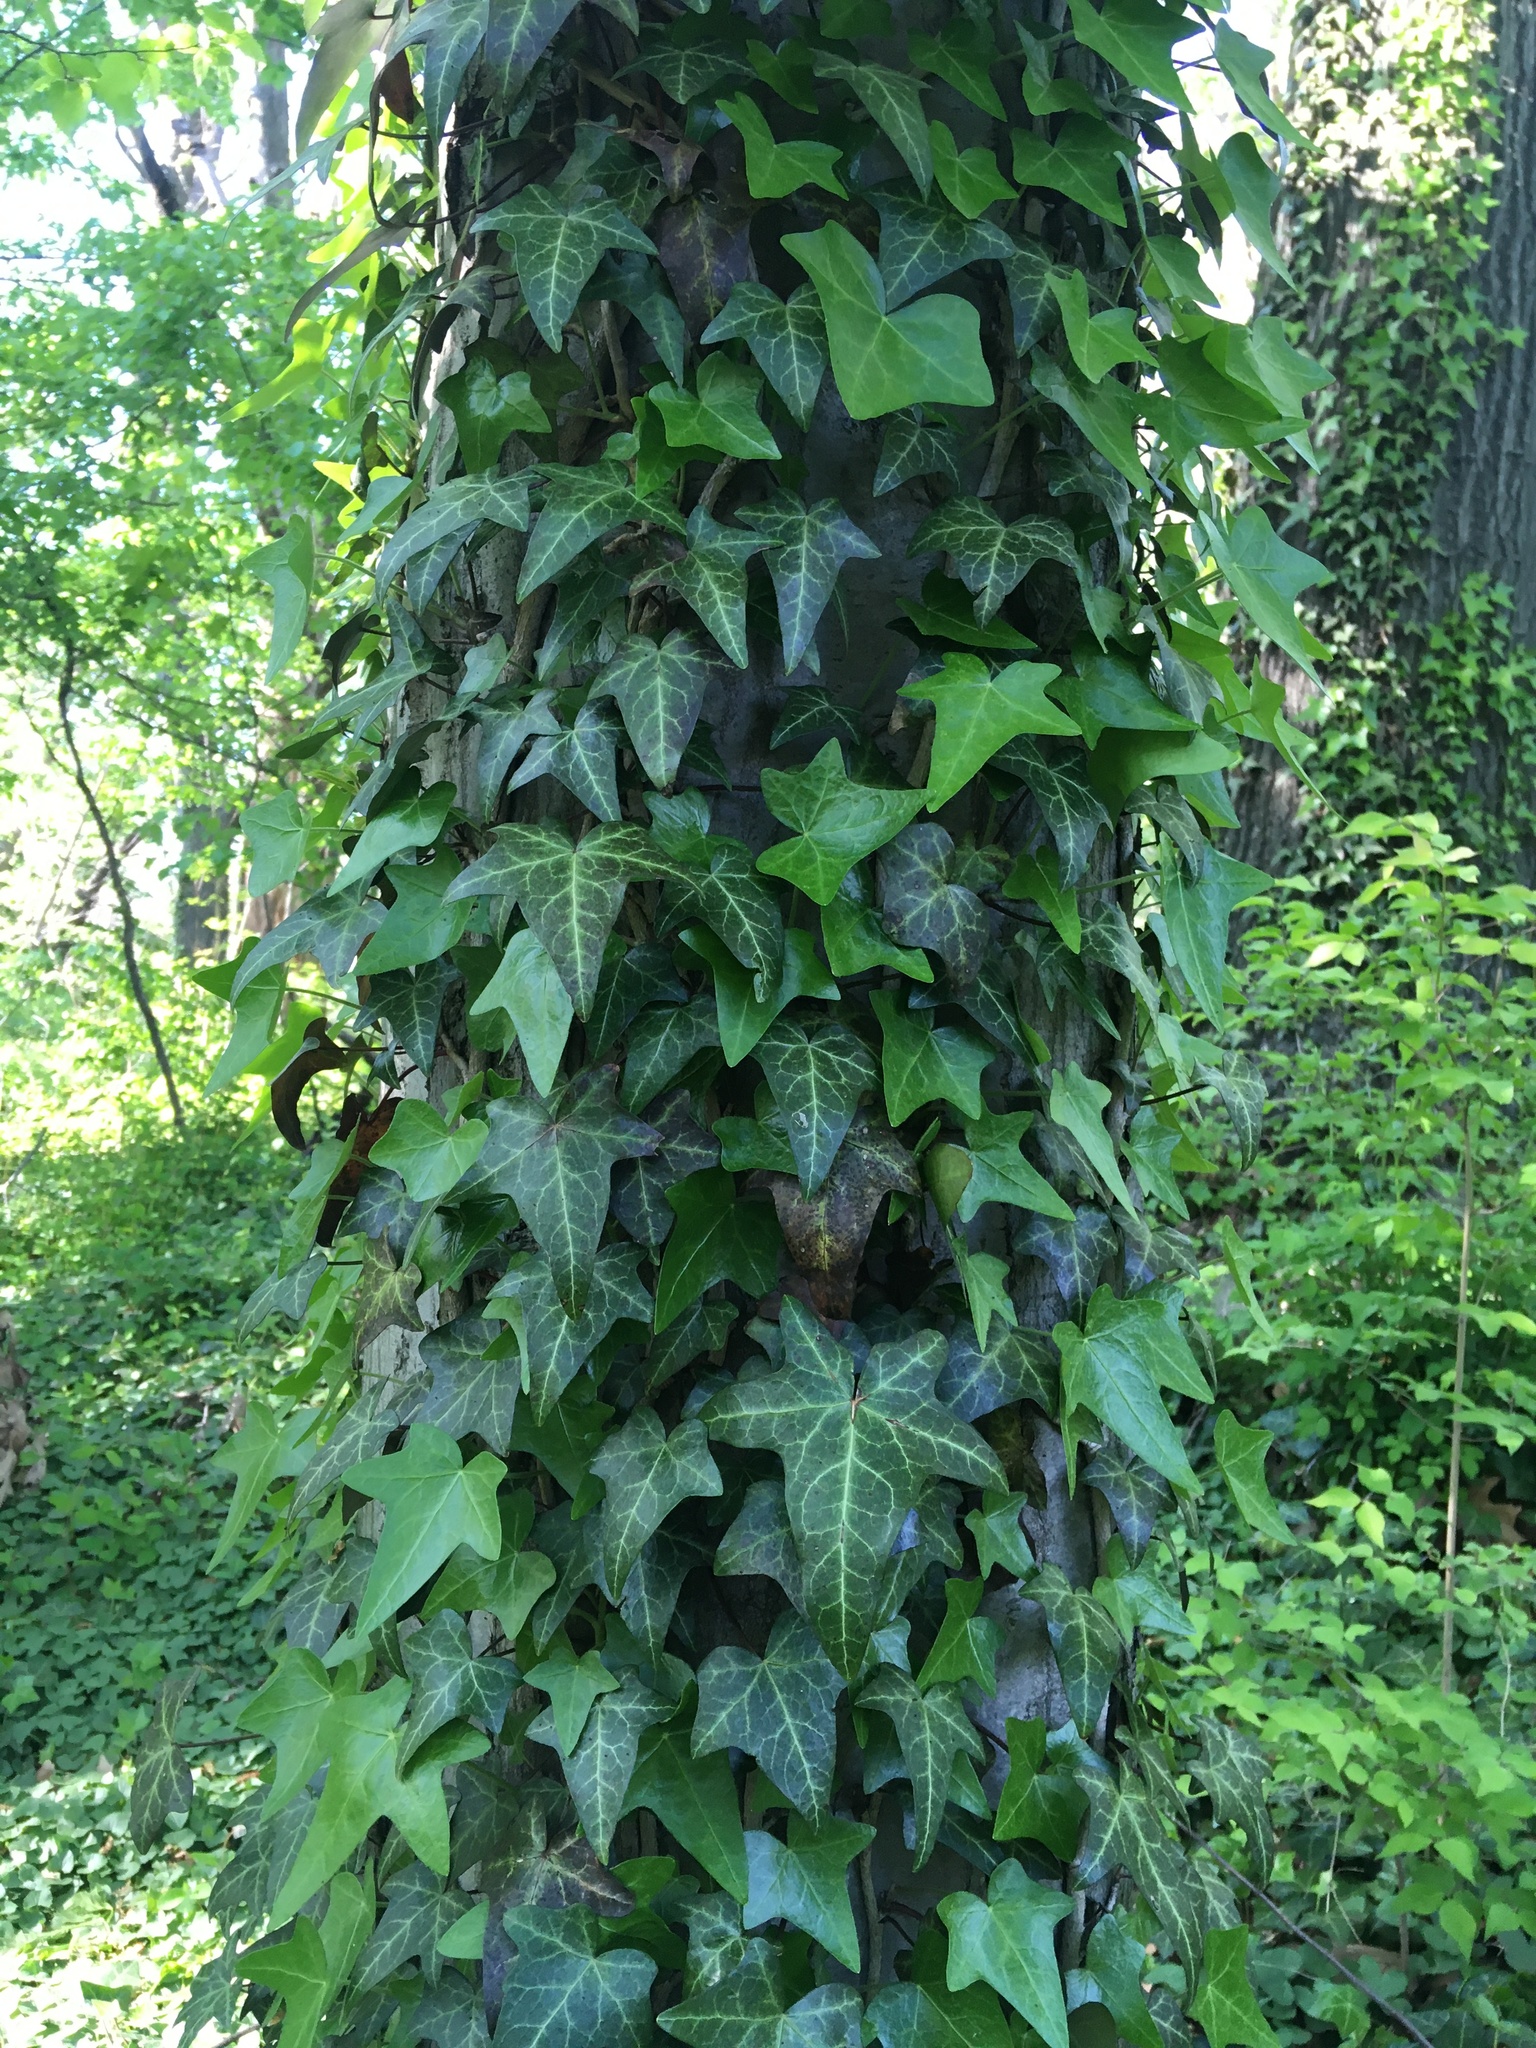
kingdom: Plantae
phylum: Tracheophyta
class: Magnoliopsida
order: Apiales
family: Araliaceae
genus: Hedera
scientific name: Hedera helix
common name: Ivy
